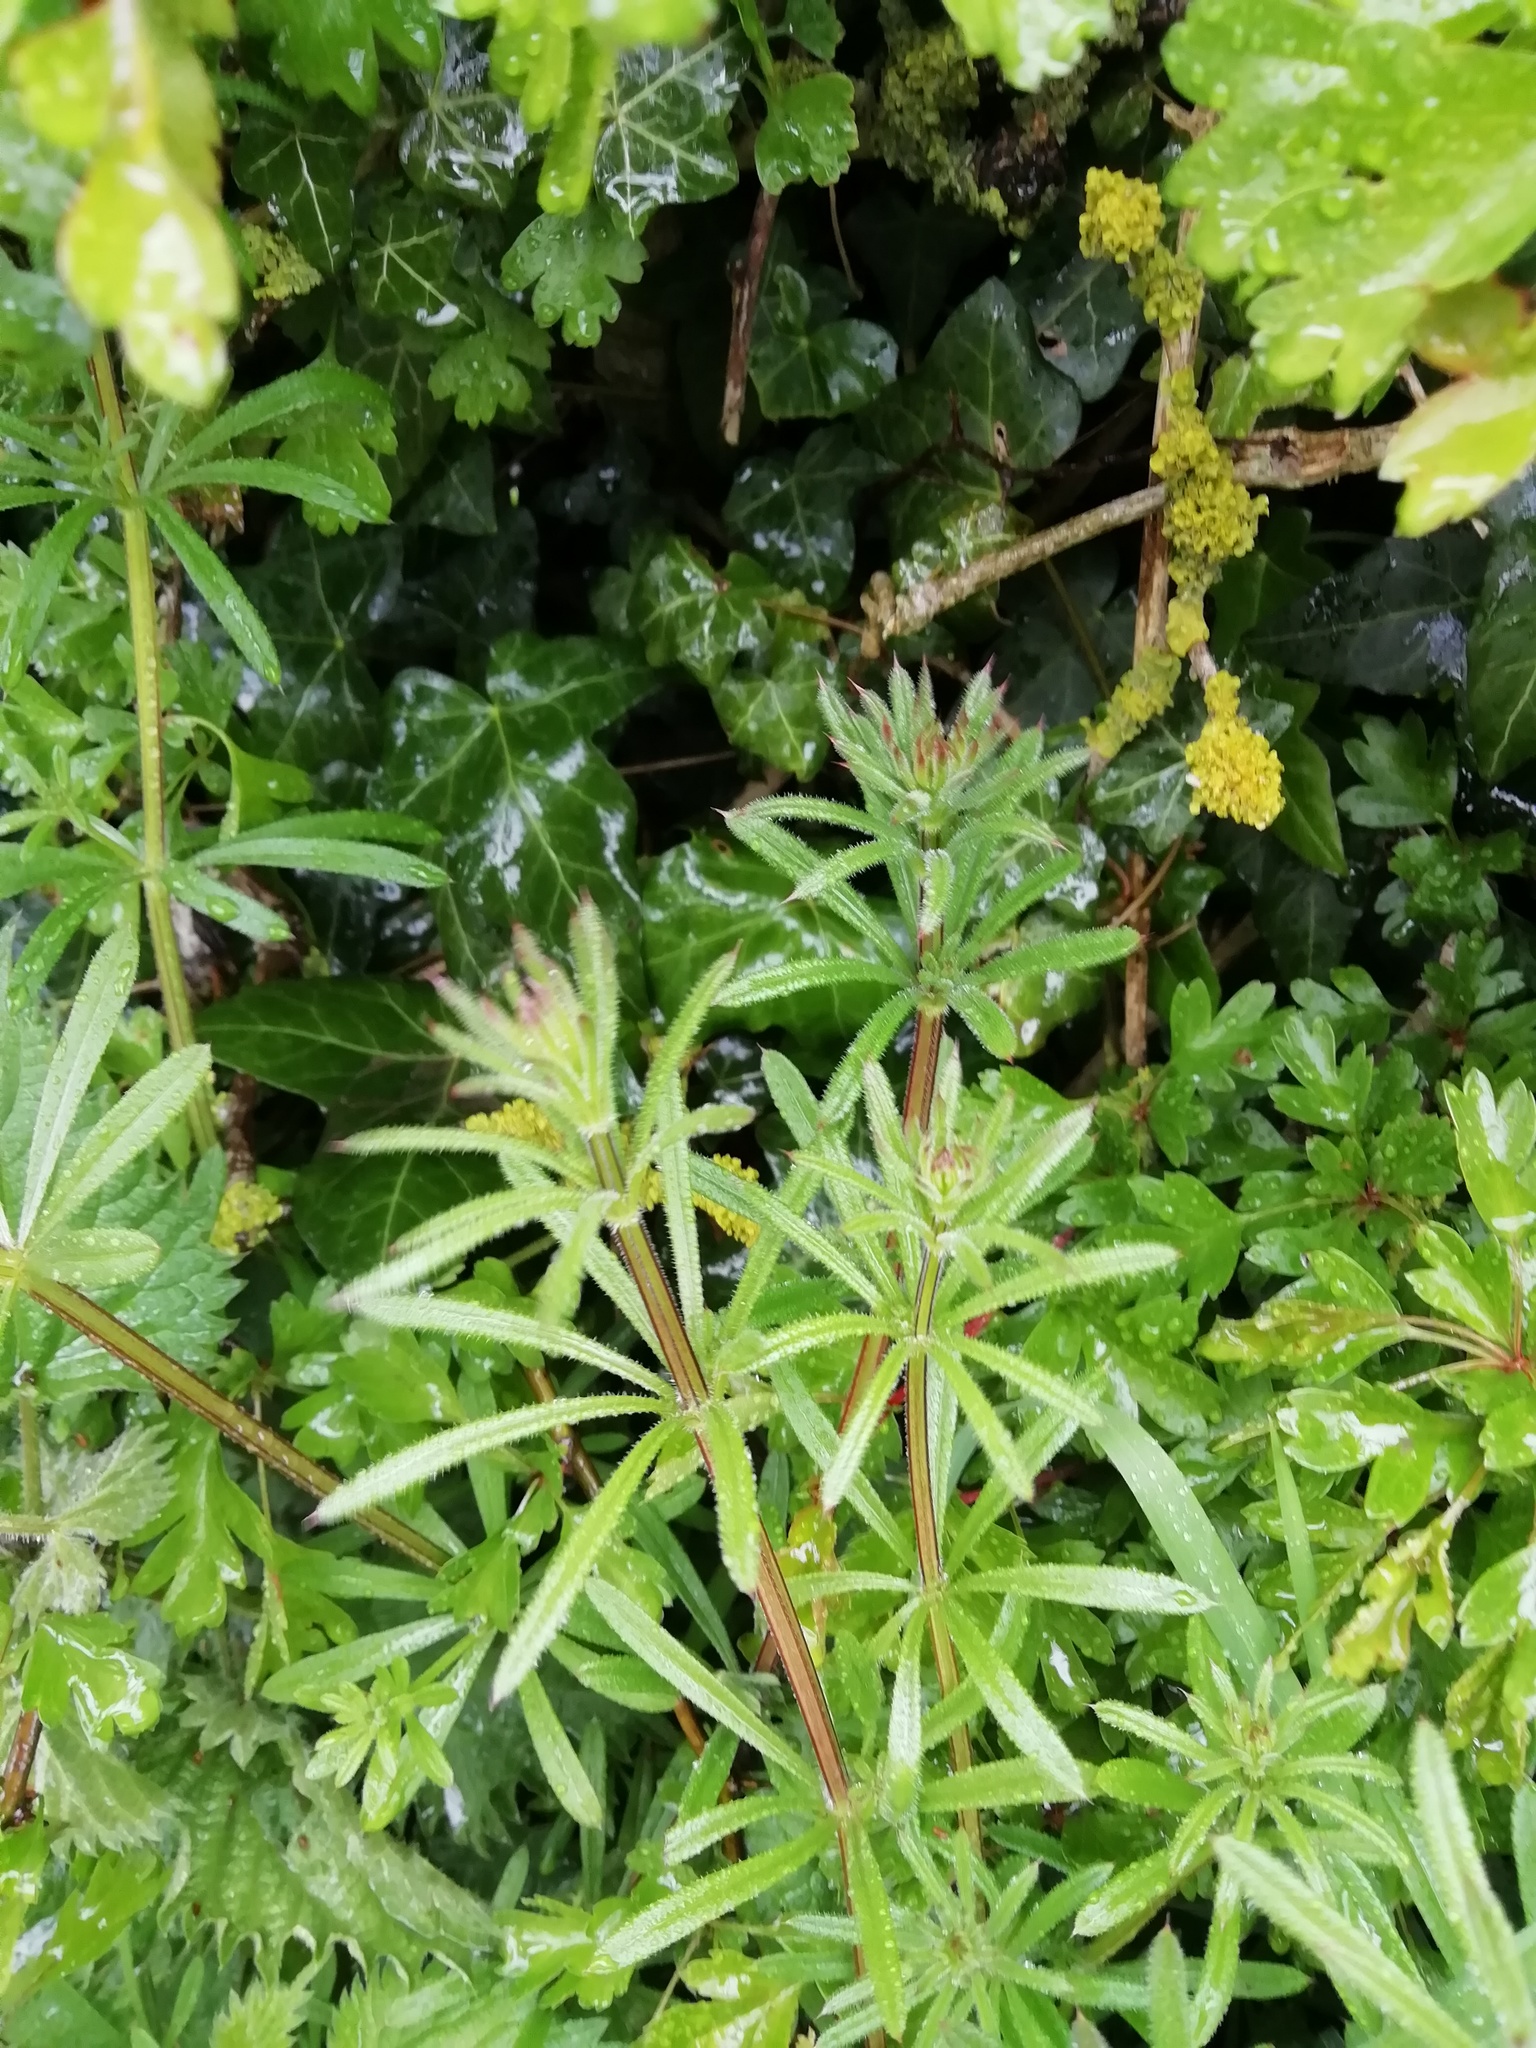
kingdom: Plantae
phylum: Tracheophyta
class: Magnoliopsida
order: Gentianales
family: Rubiaceae
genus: Galium
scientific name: Galium aparine
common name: Cleavers
